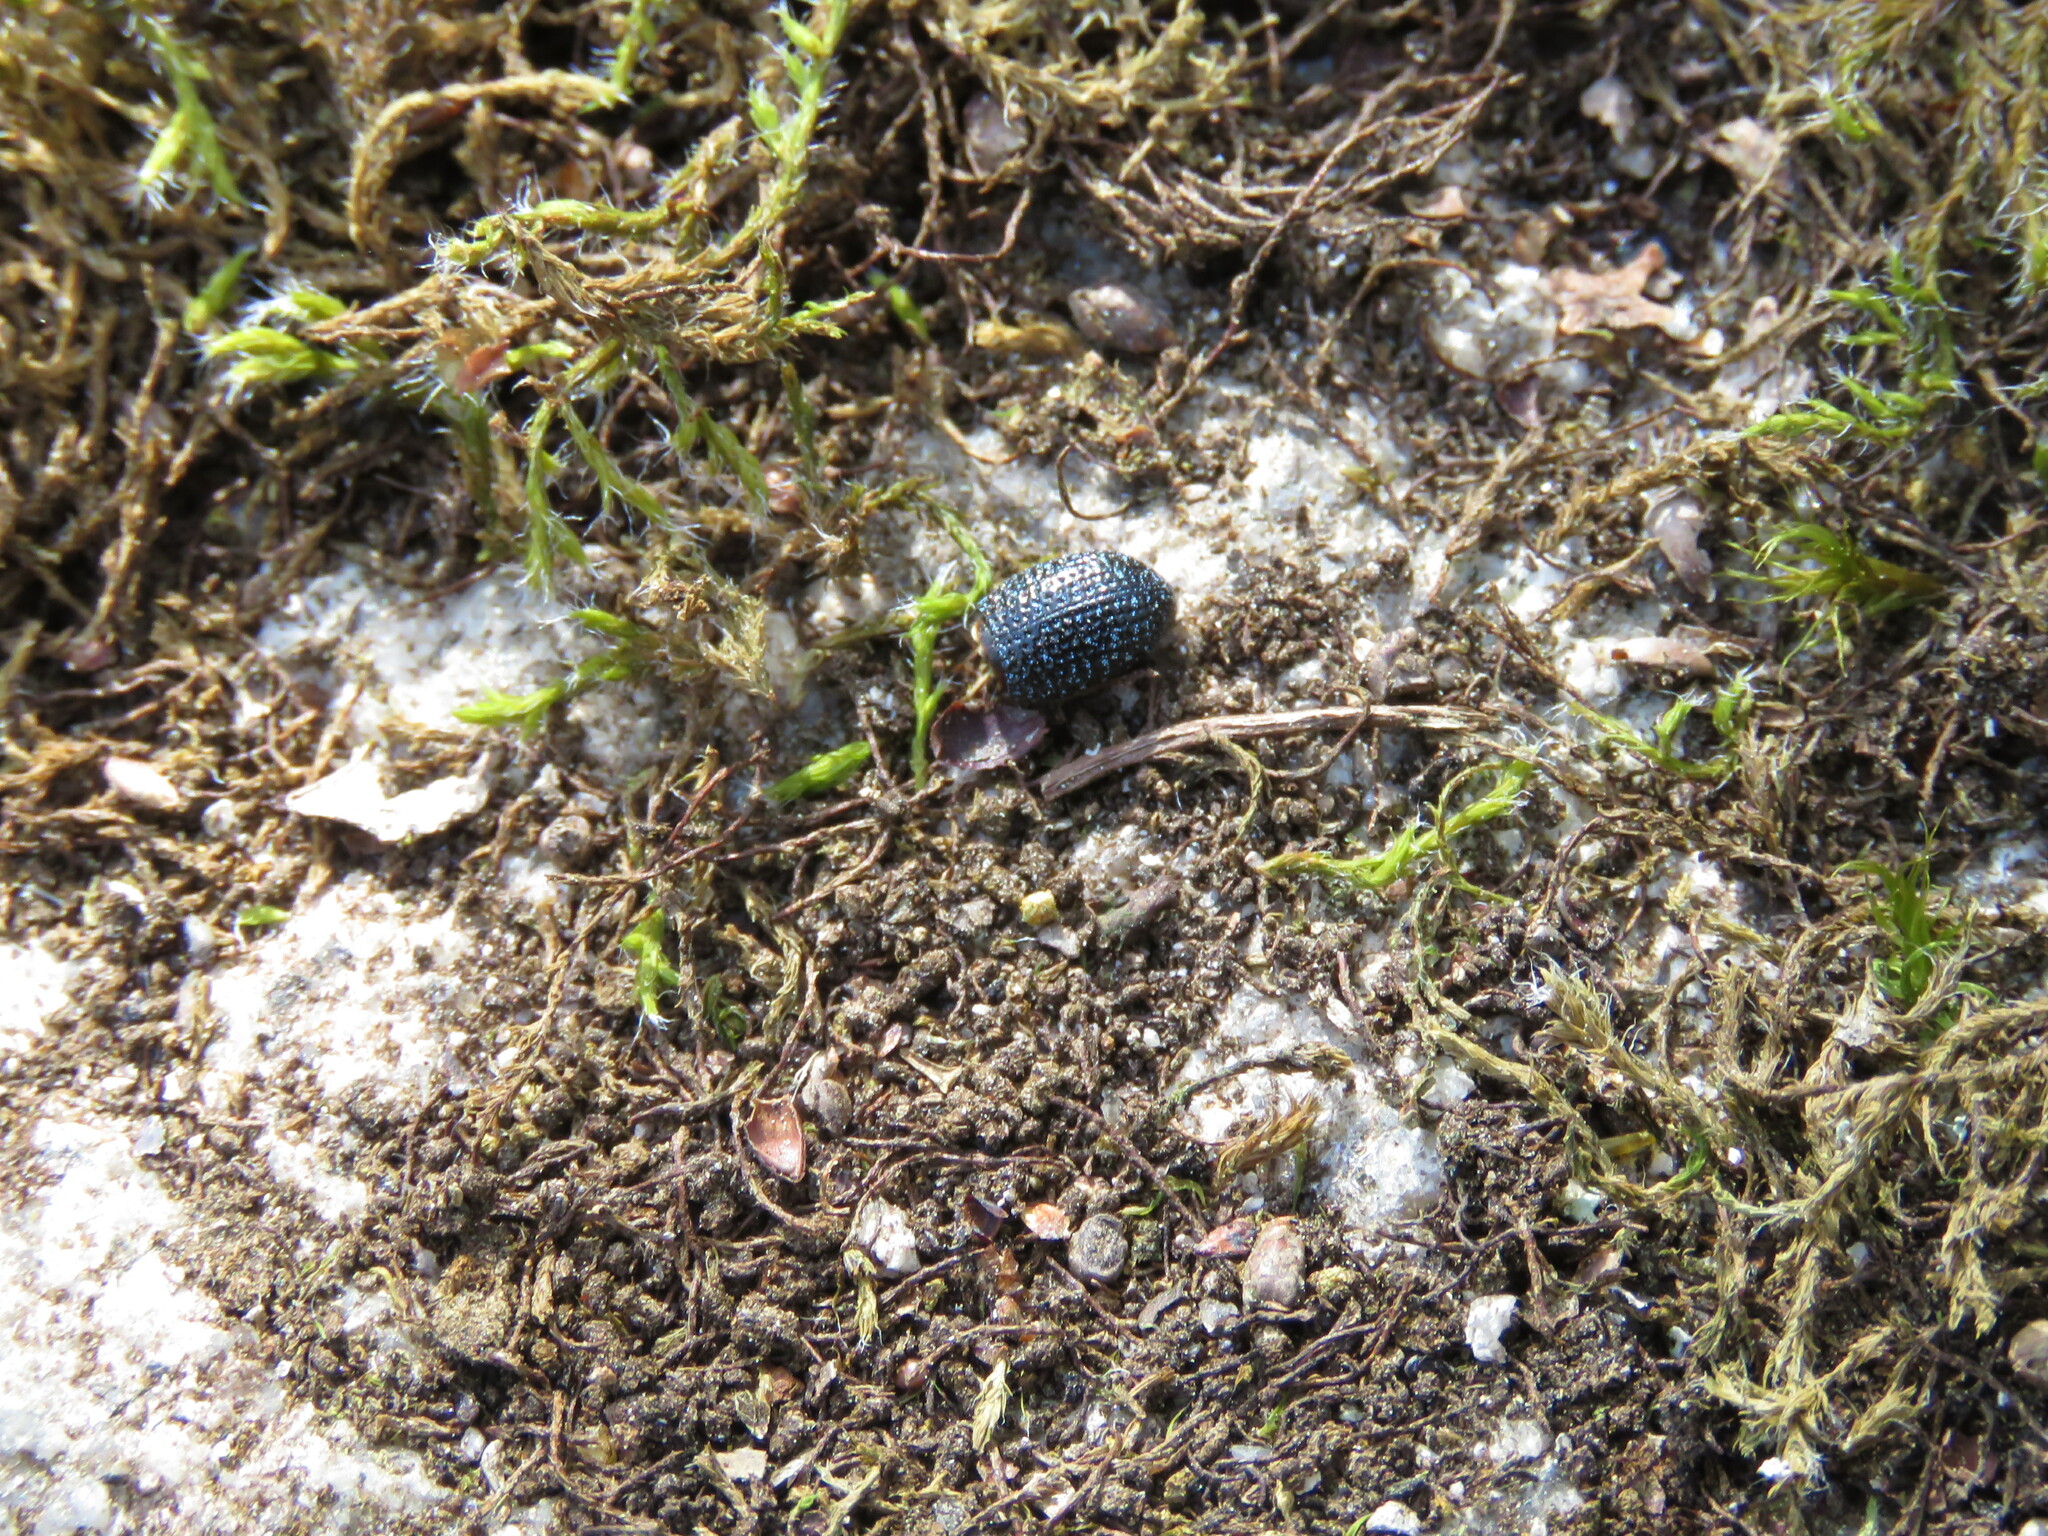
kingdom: Animalia
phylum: Arthropoda
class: Insecta
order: Coleoptera
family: Curculionidae
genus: Polydius
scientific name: Polydius hispanus
